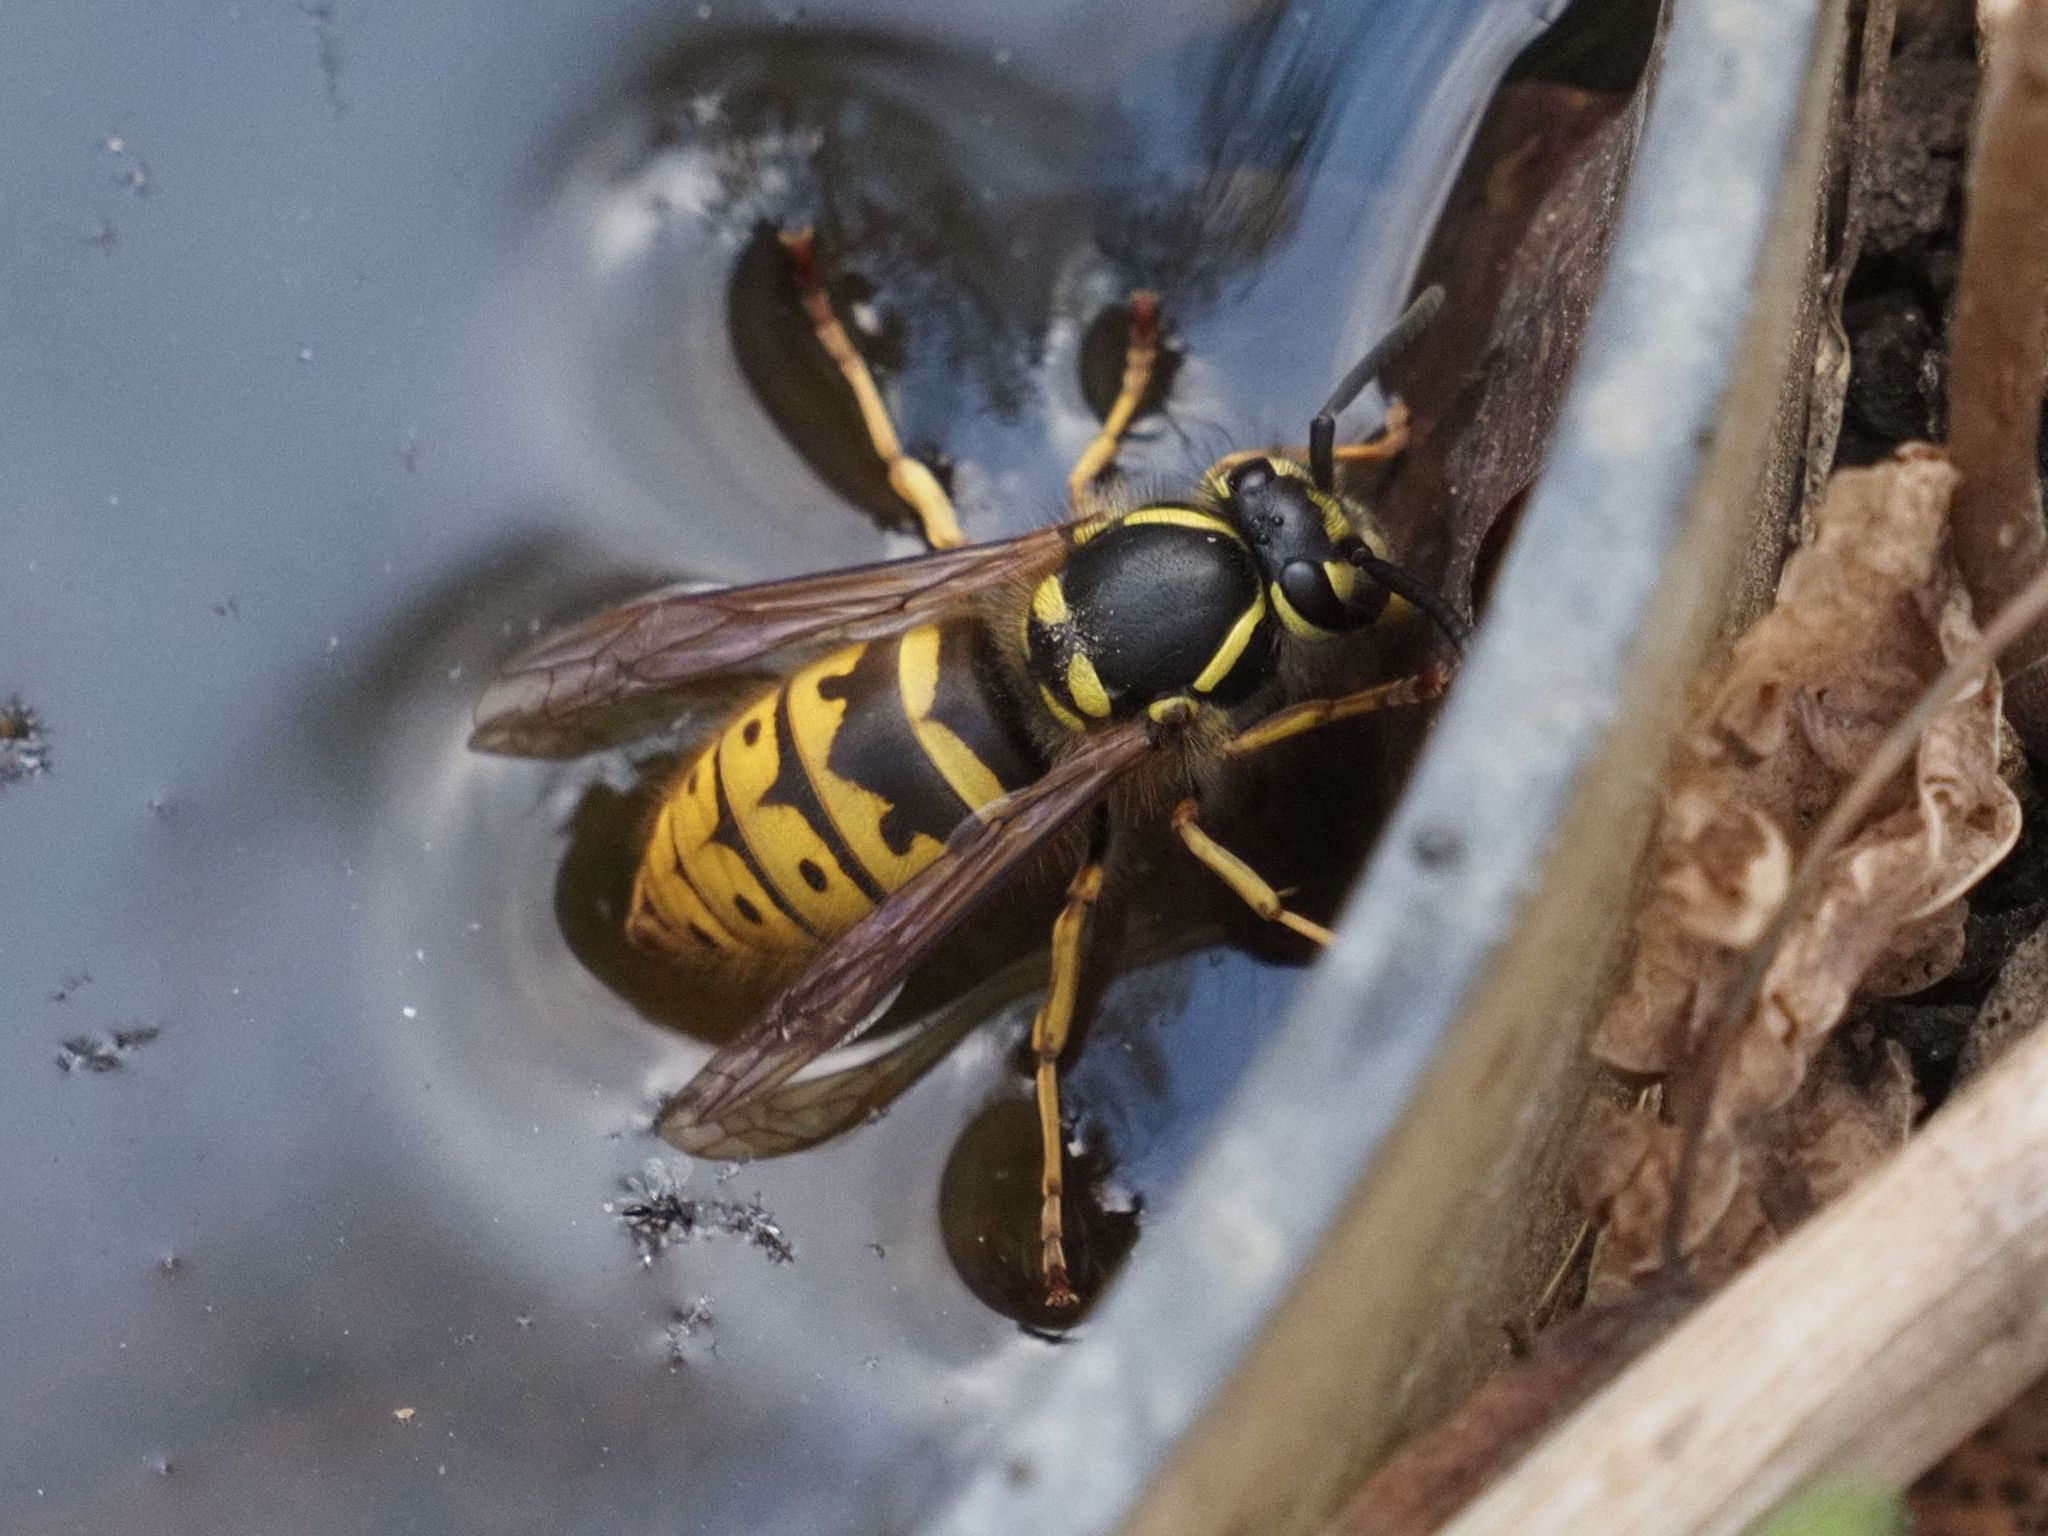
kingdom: Animalia
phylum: Arthropoda
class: Insecta
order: Hymenoptera
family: Vespidae
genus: Vespula
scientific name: Vespula vulgaris
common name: Common wasp
